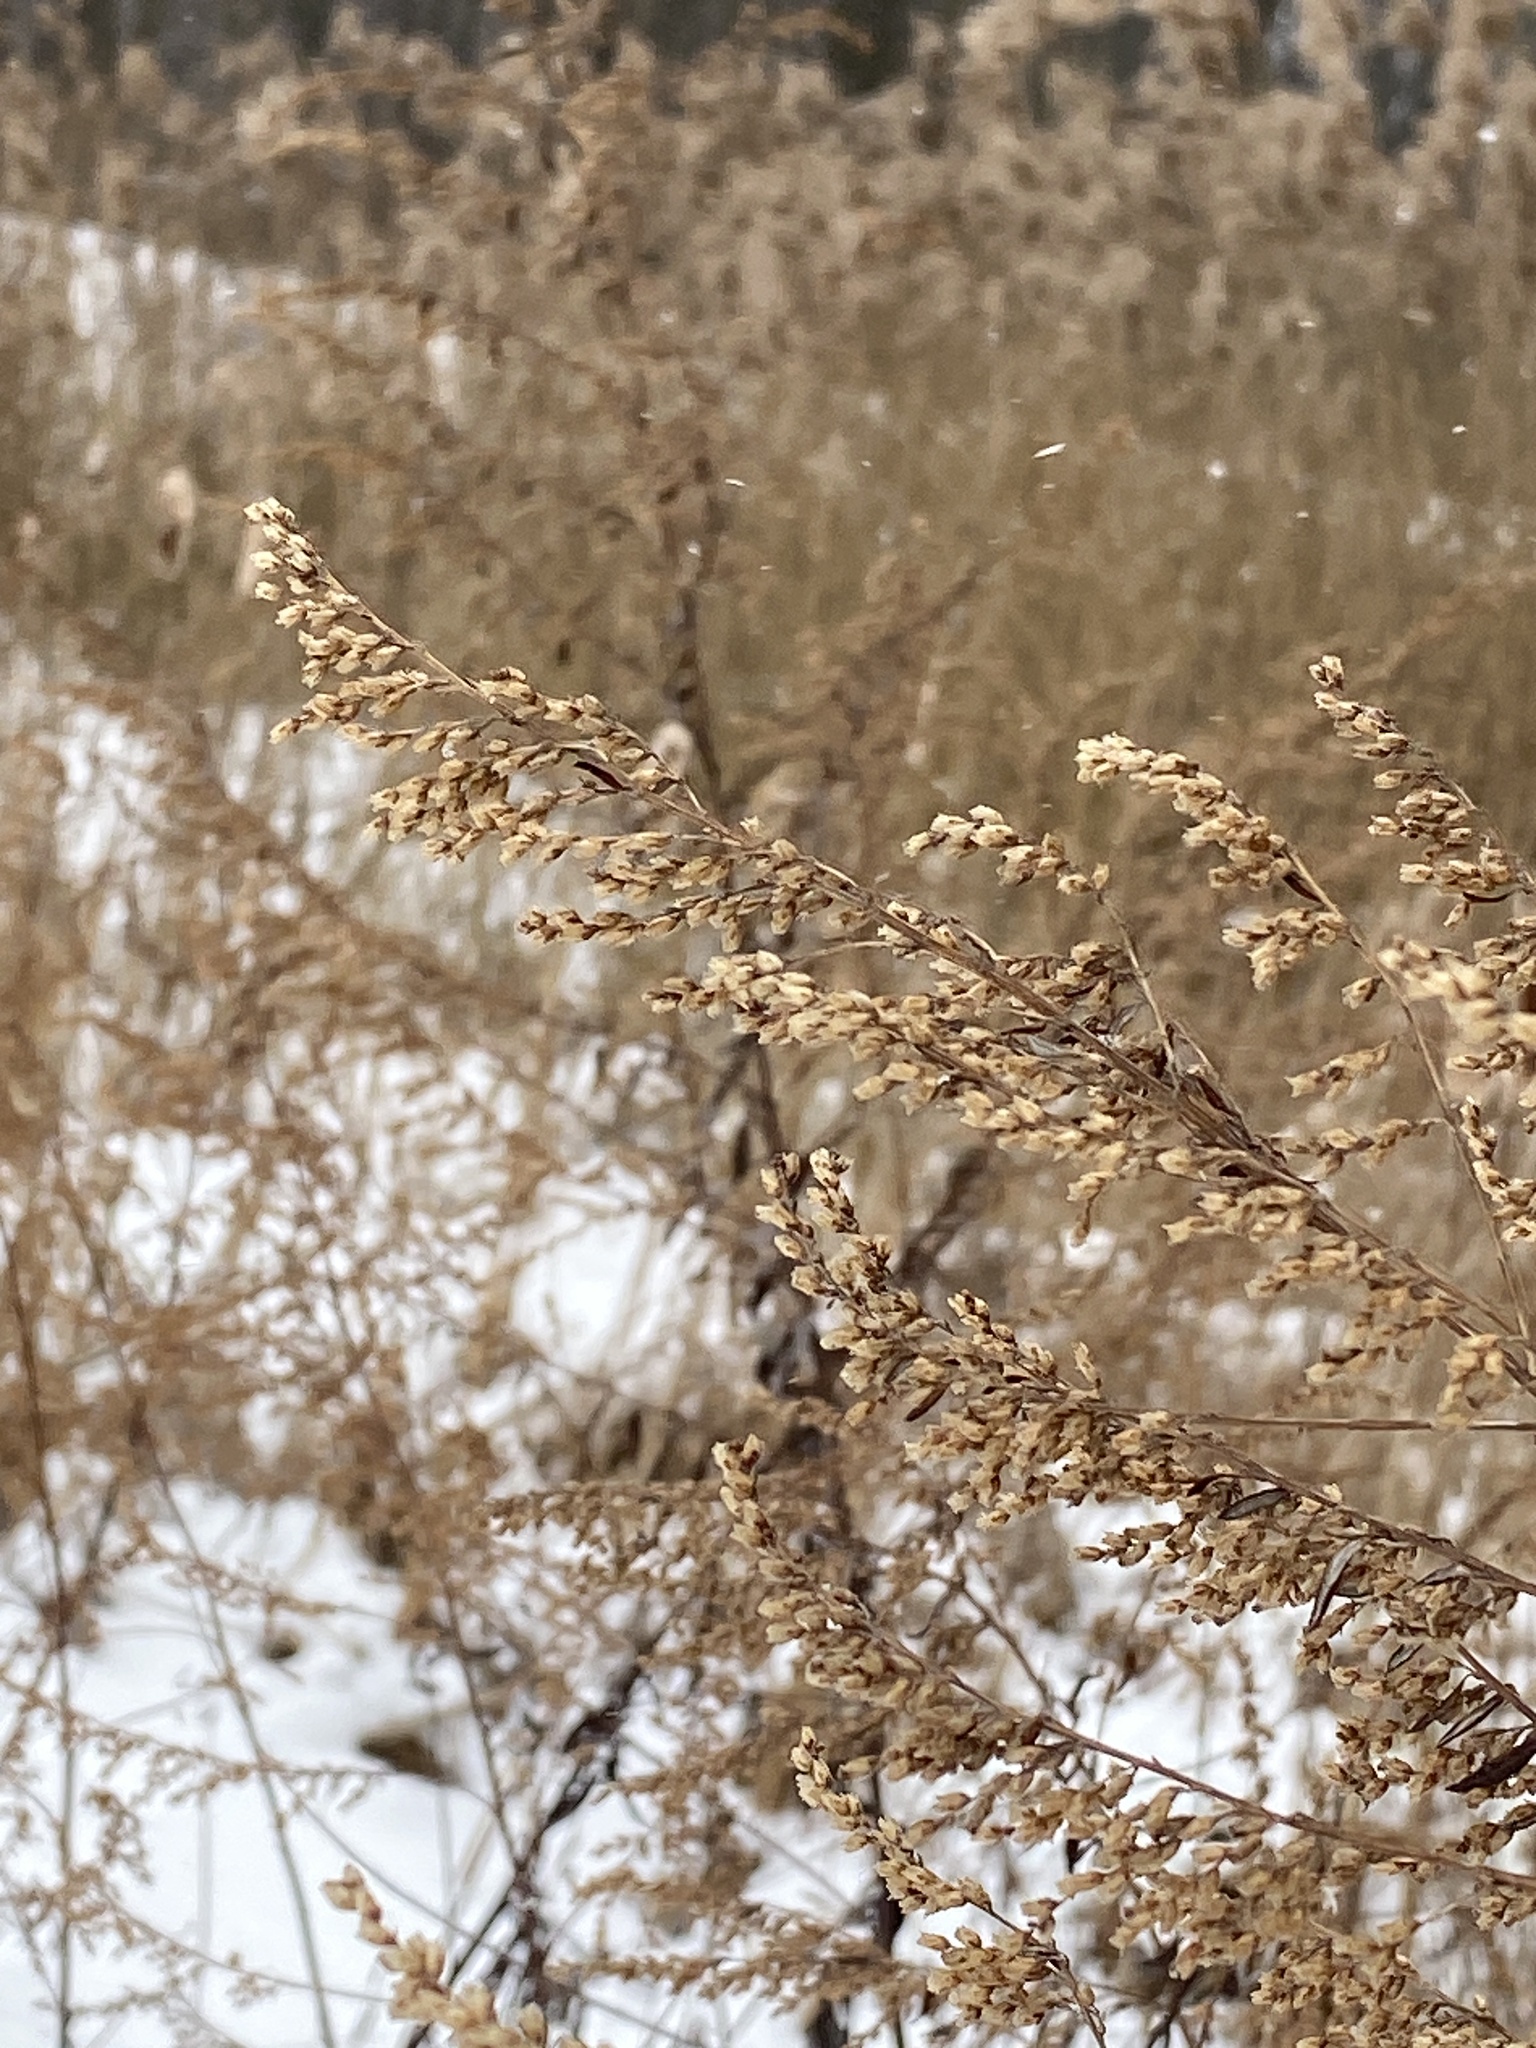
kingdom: Plantae
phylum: Tracheophyta
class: Magnoliopsida
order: Asterales
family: Asteraceae
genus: Artemisia
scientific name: Artemisia vulgaris
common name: Mugwort
